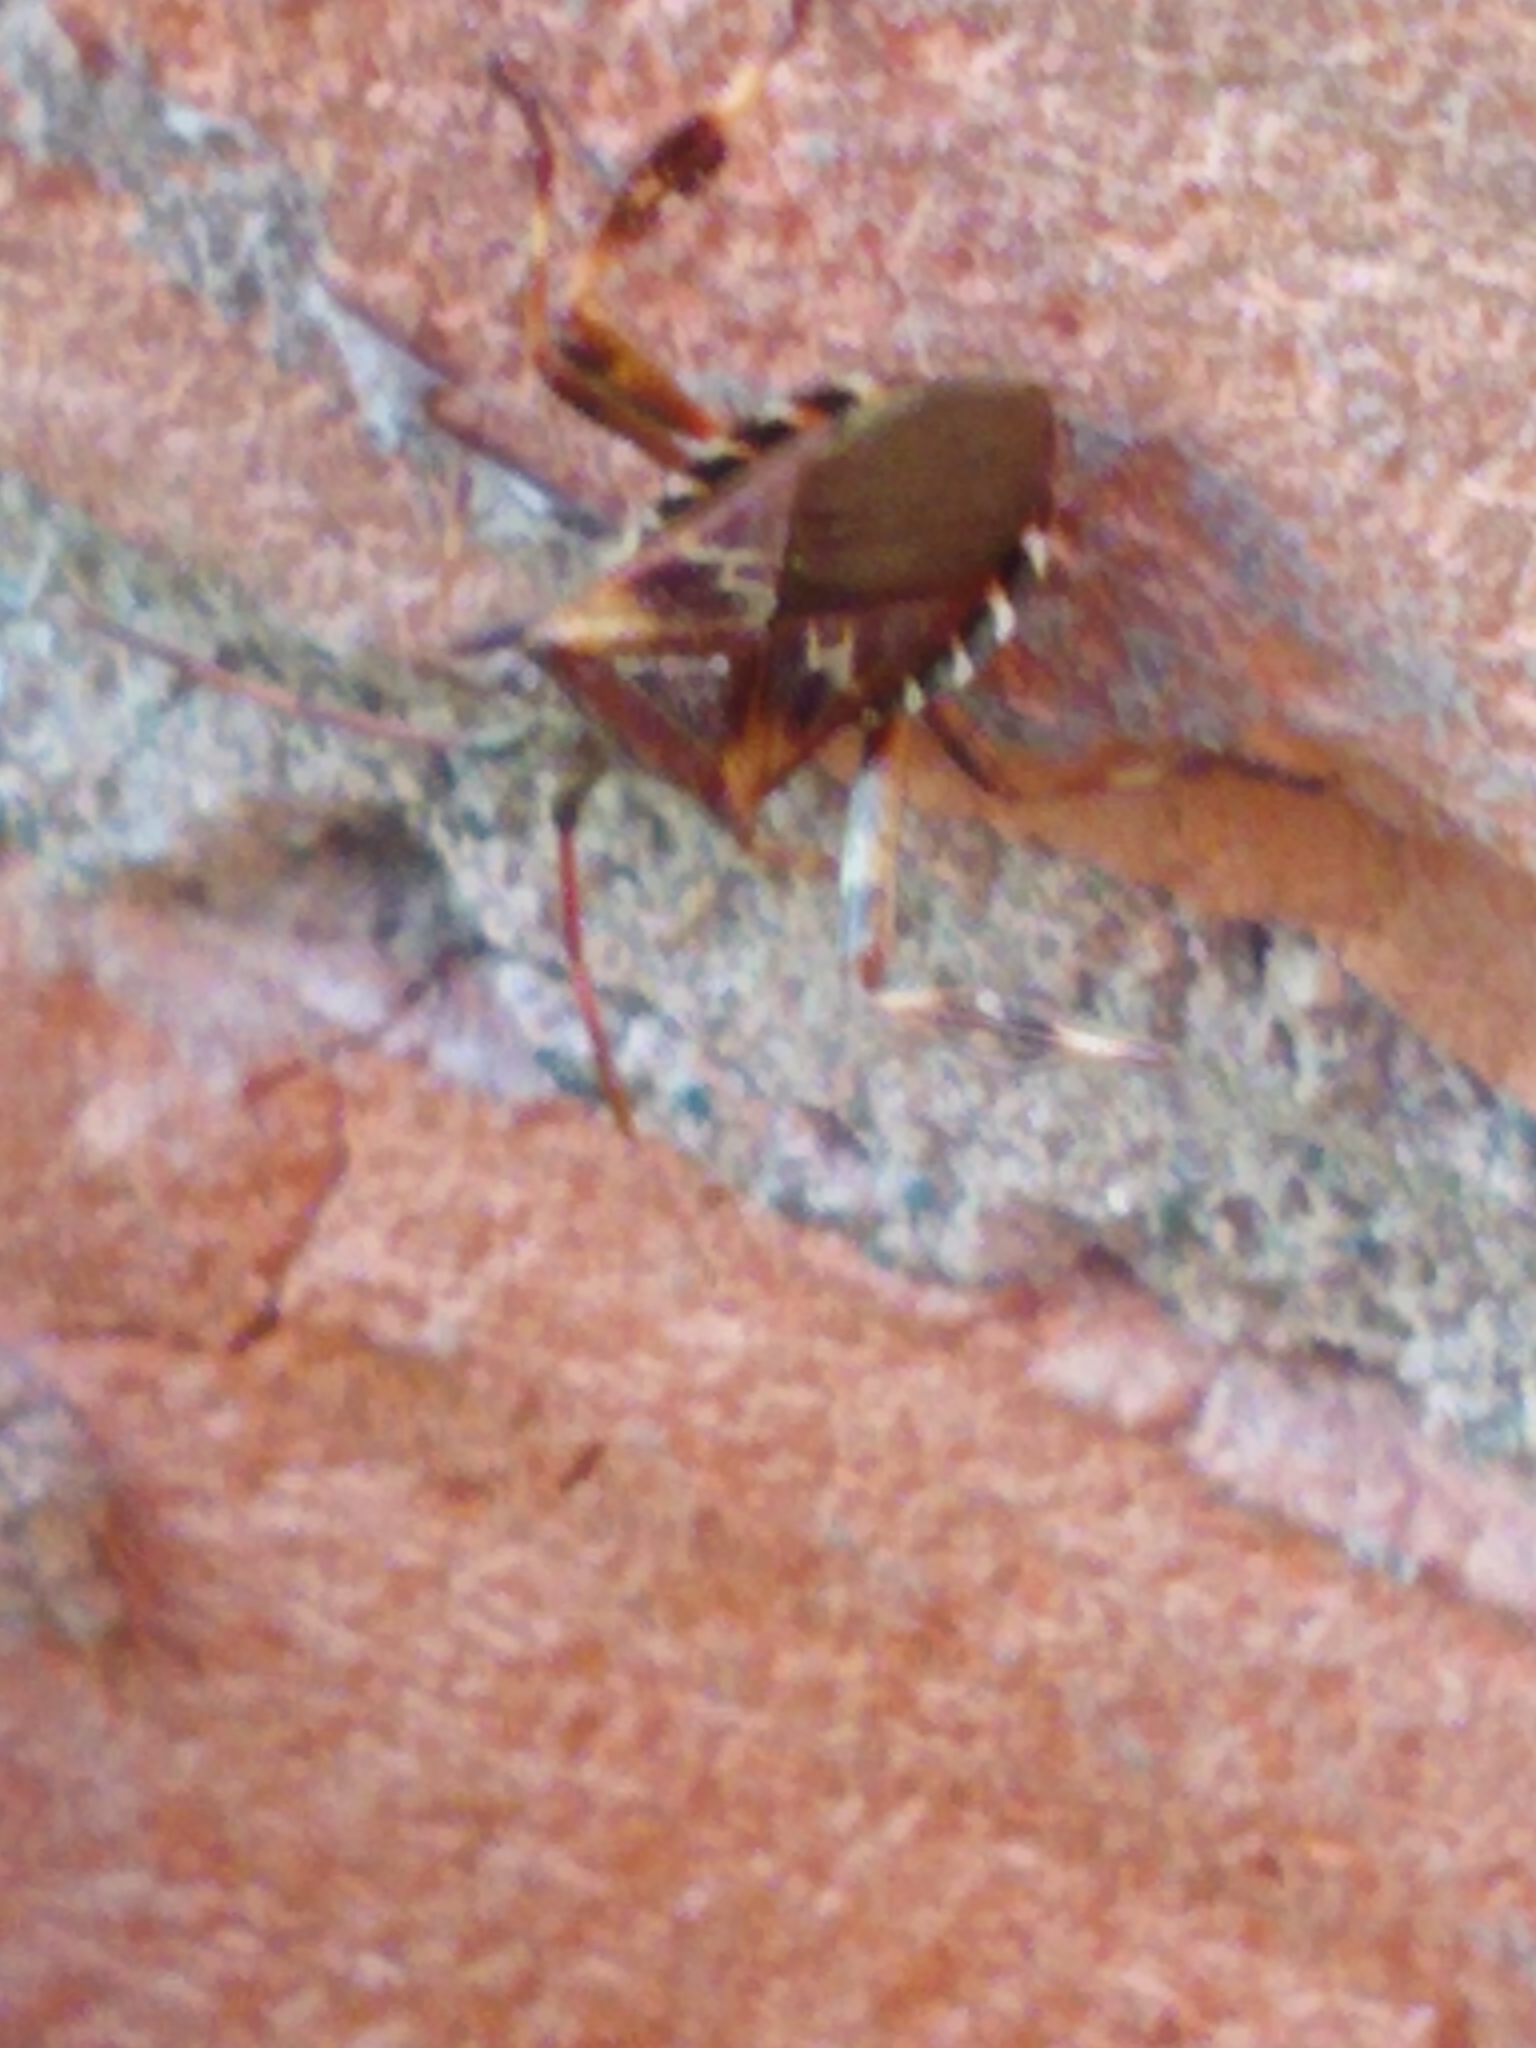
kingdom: Animalia
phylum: Arthropoda
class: Insecta
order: Hemiptera
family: Coreidae
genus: Leptoglossus
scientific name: Leptoglossus occidentalis
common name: Western conifer-seed bug
